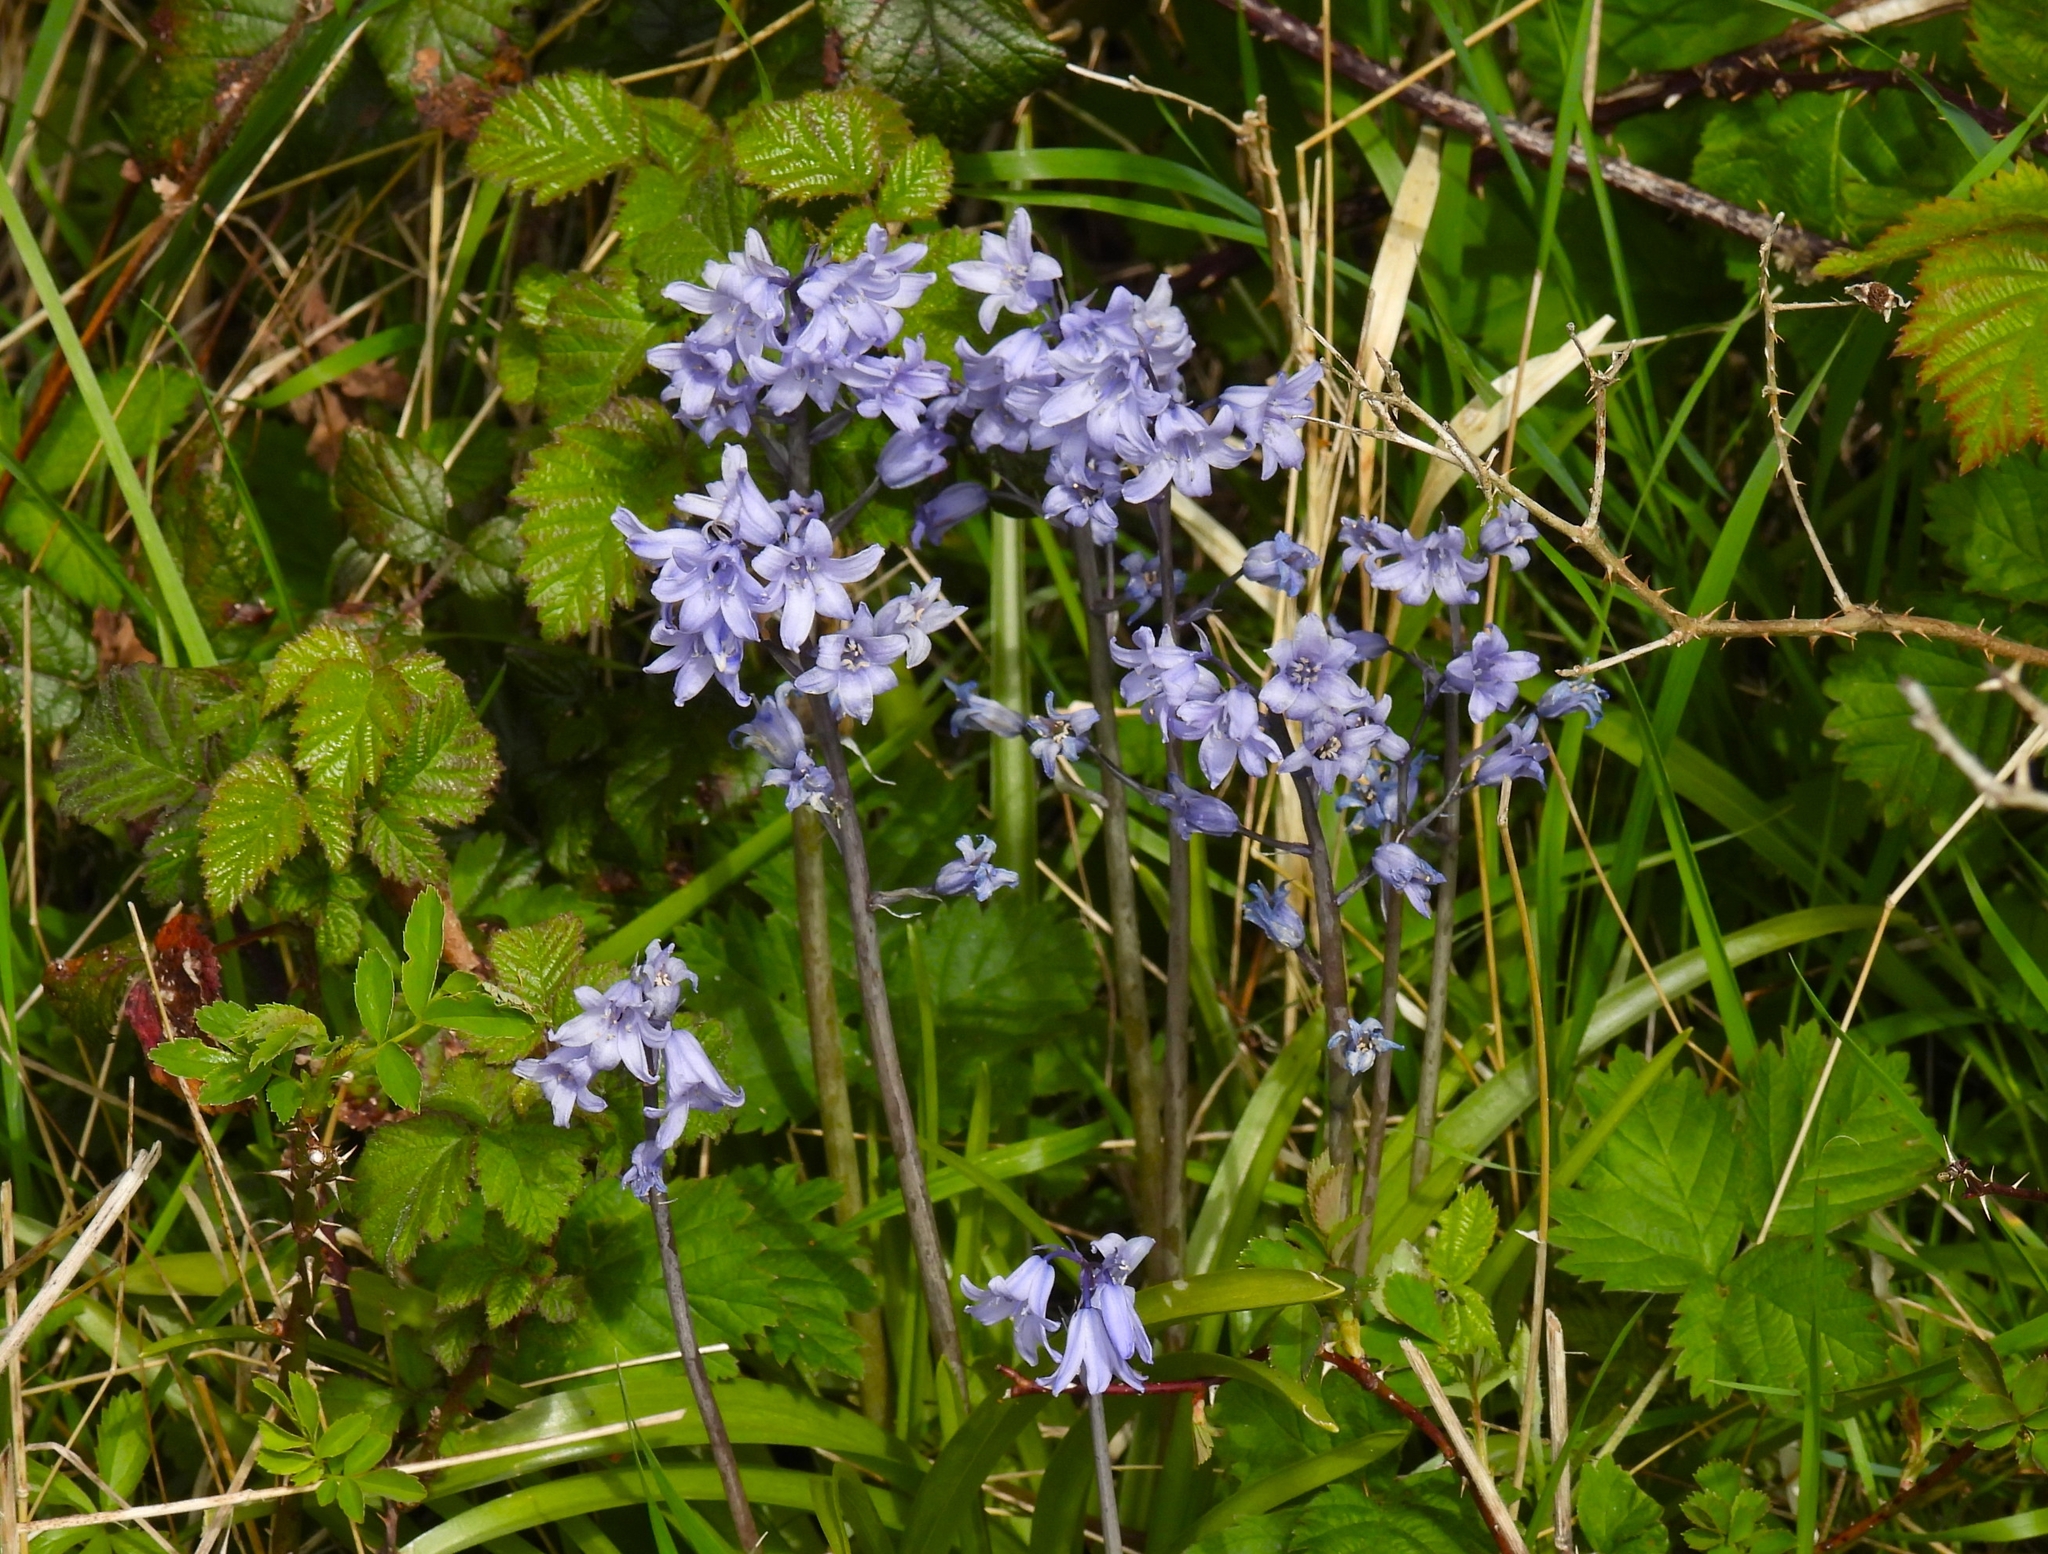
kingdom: Plantae
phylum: Tracheophyta
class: Liliopsida
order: Asparagales
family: Asparagaceae
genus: Hyacinthoides
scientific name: Hyacinthoides hispanica
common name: Spanish bluebell
